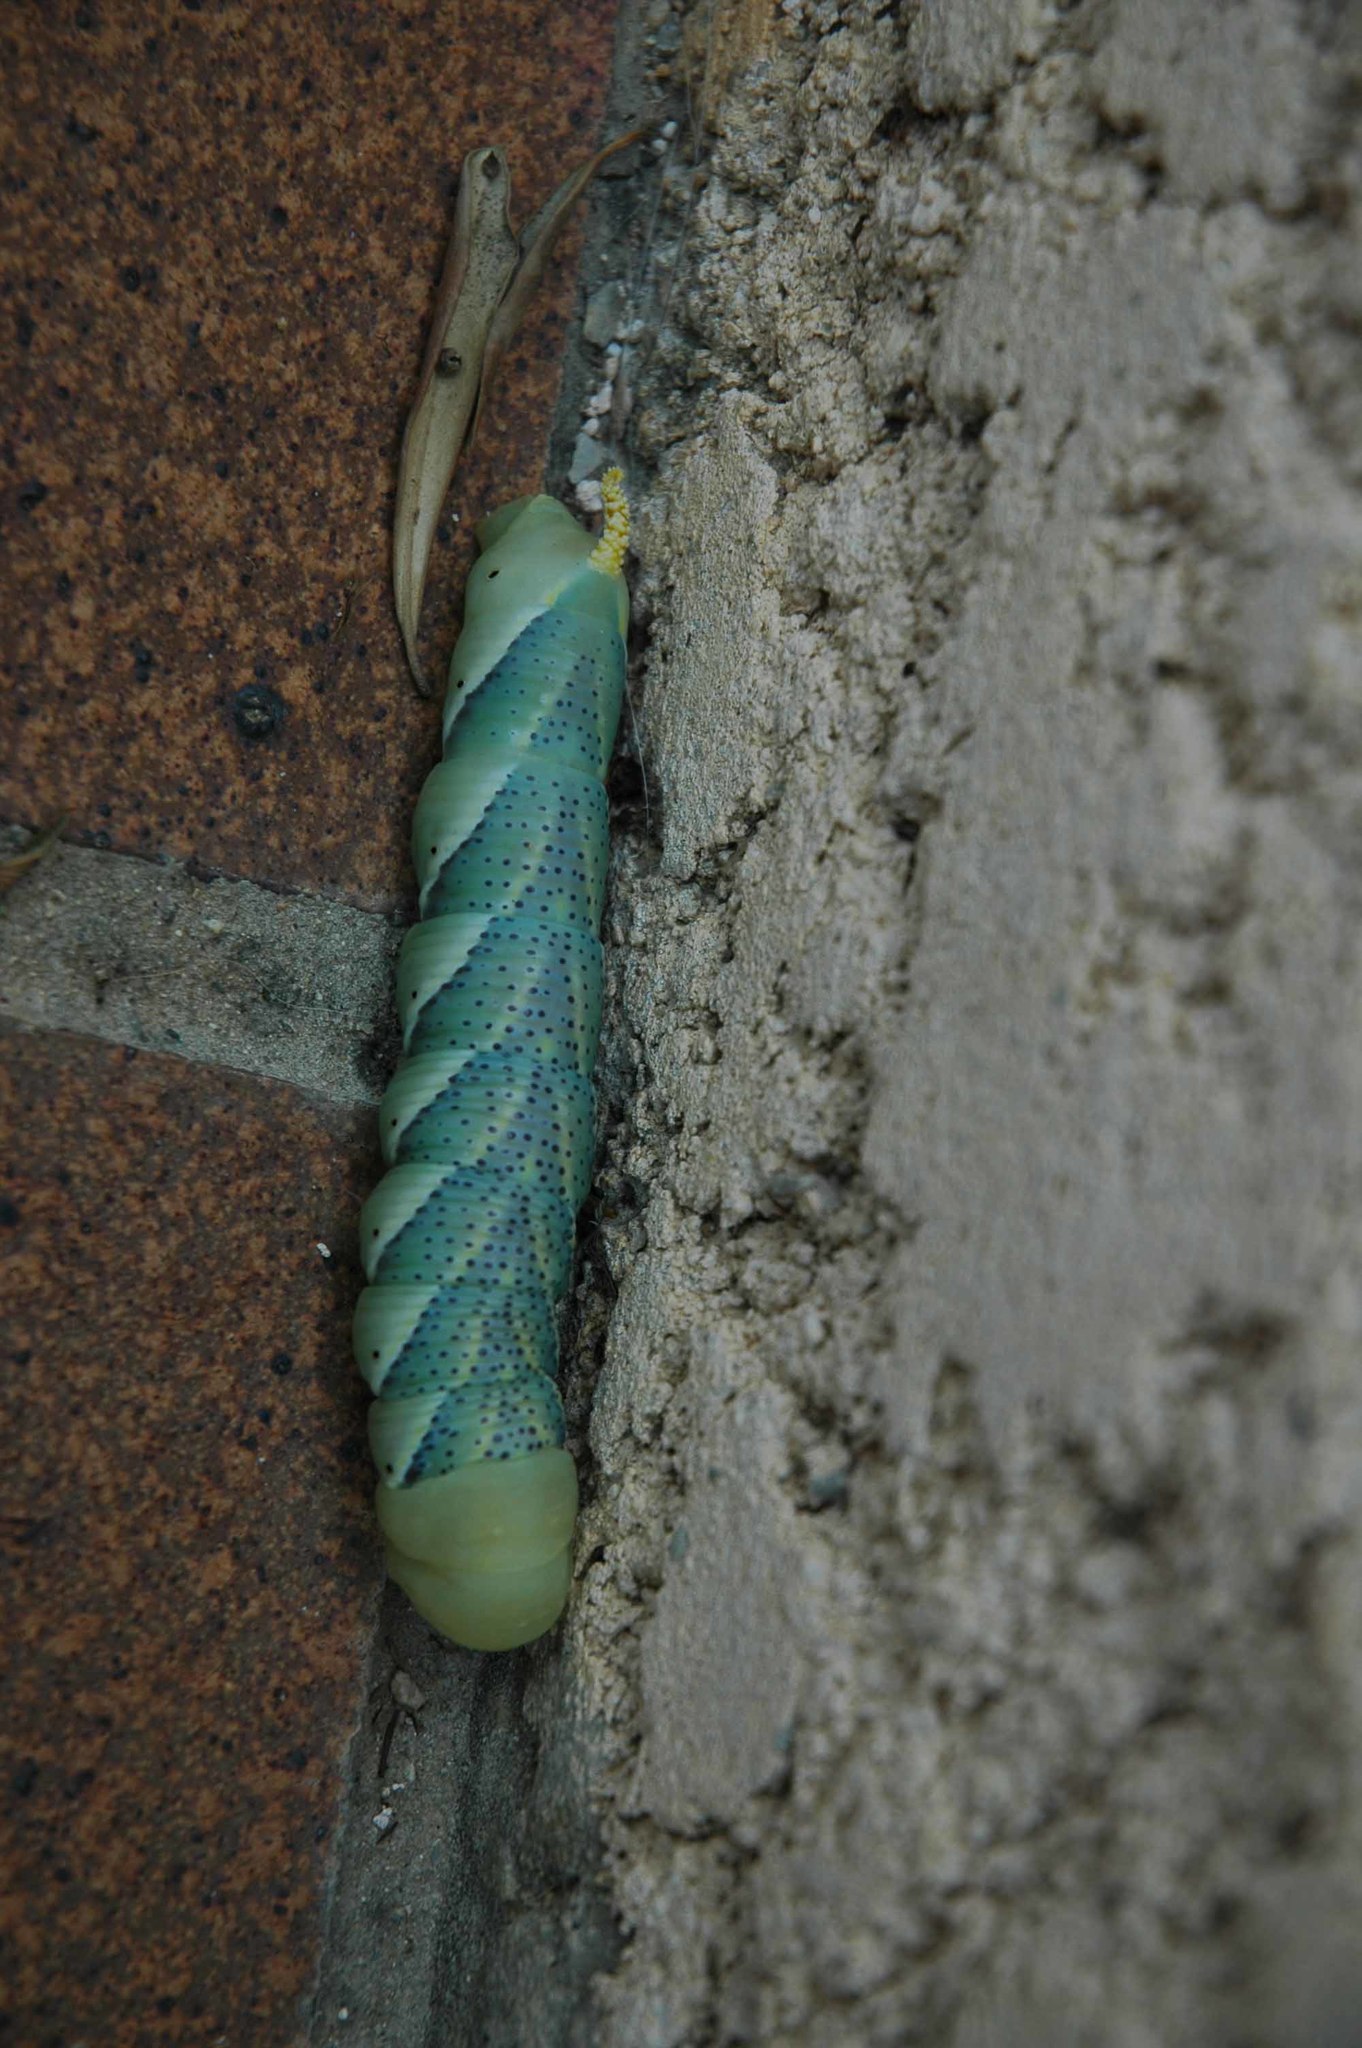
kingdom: Animalia
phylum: Arthropoda
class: Insecta
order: Lepidoptera
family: Sphingidae
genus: Acherontia
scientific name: Acherontia atropos
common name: Death's-head hawk moth
